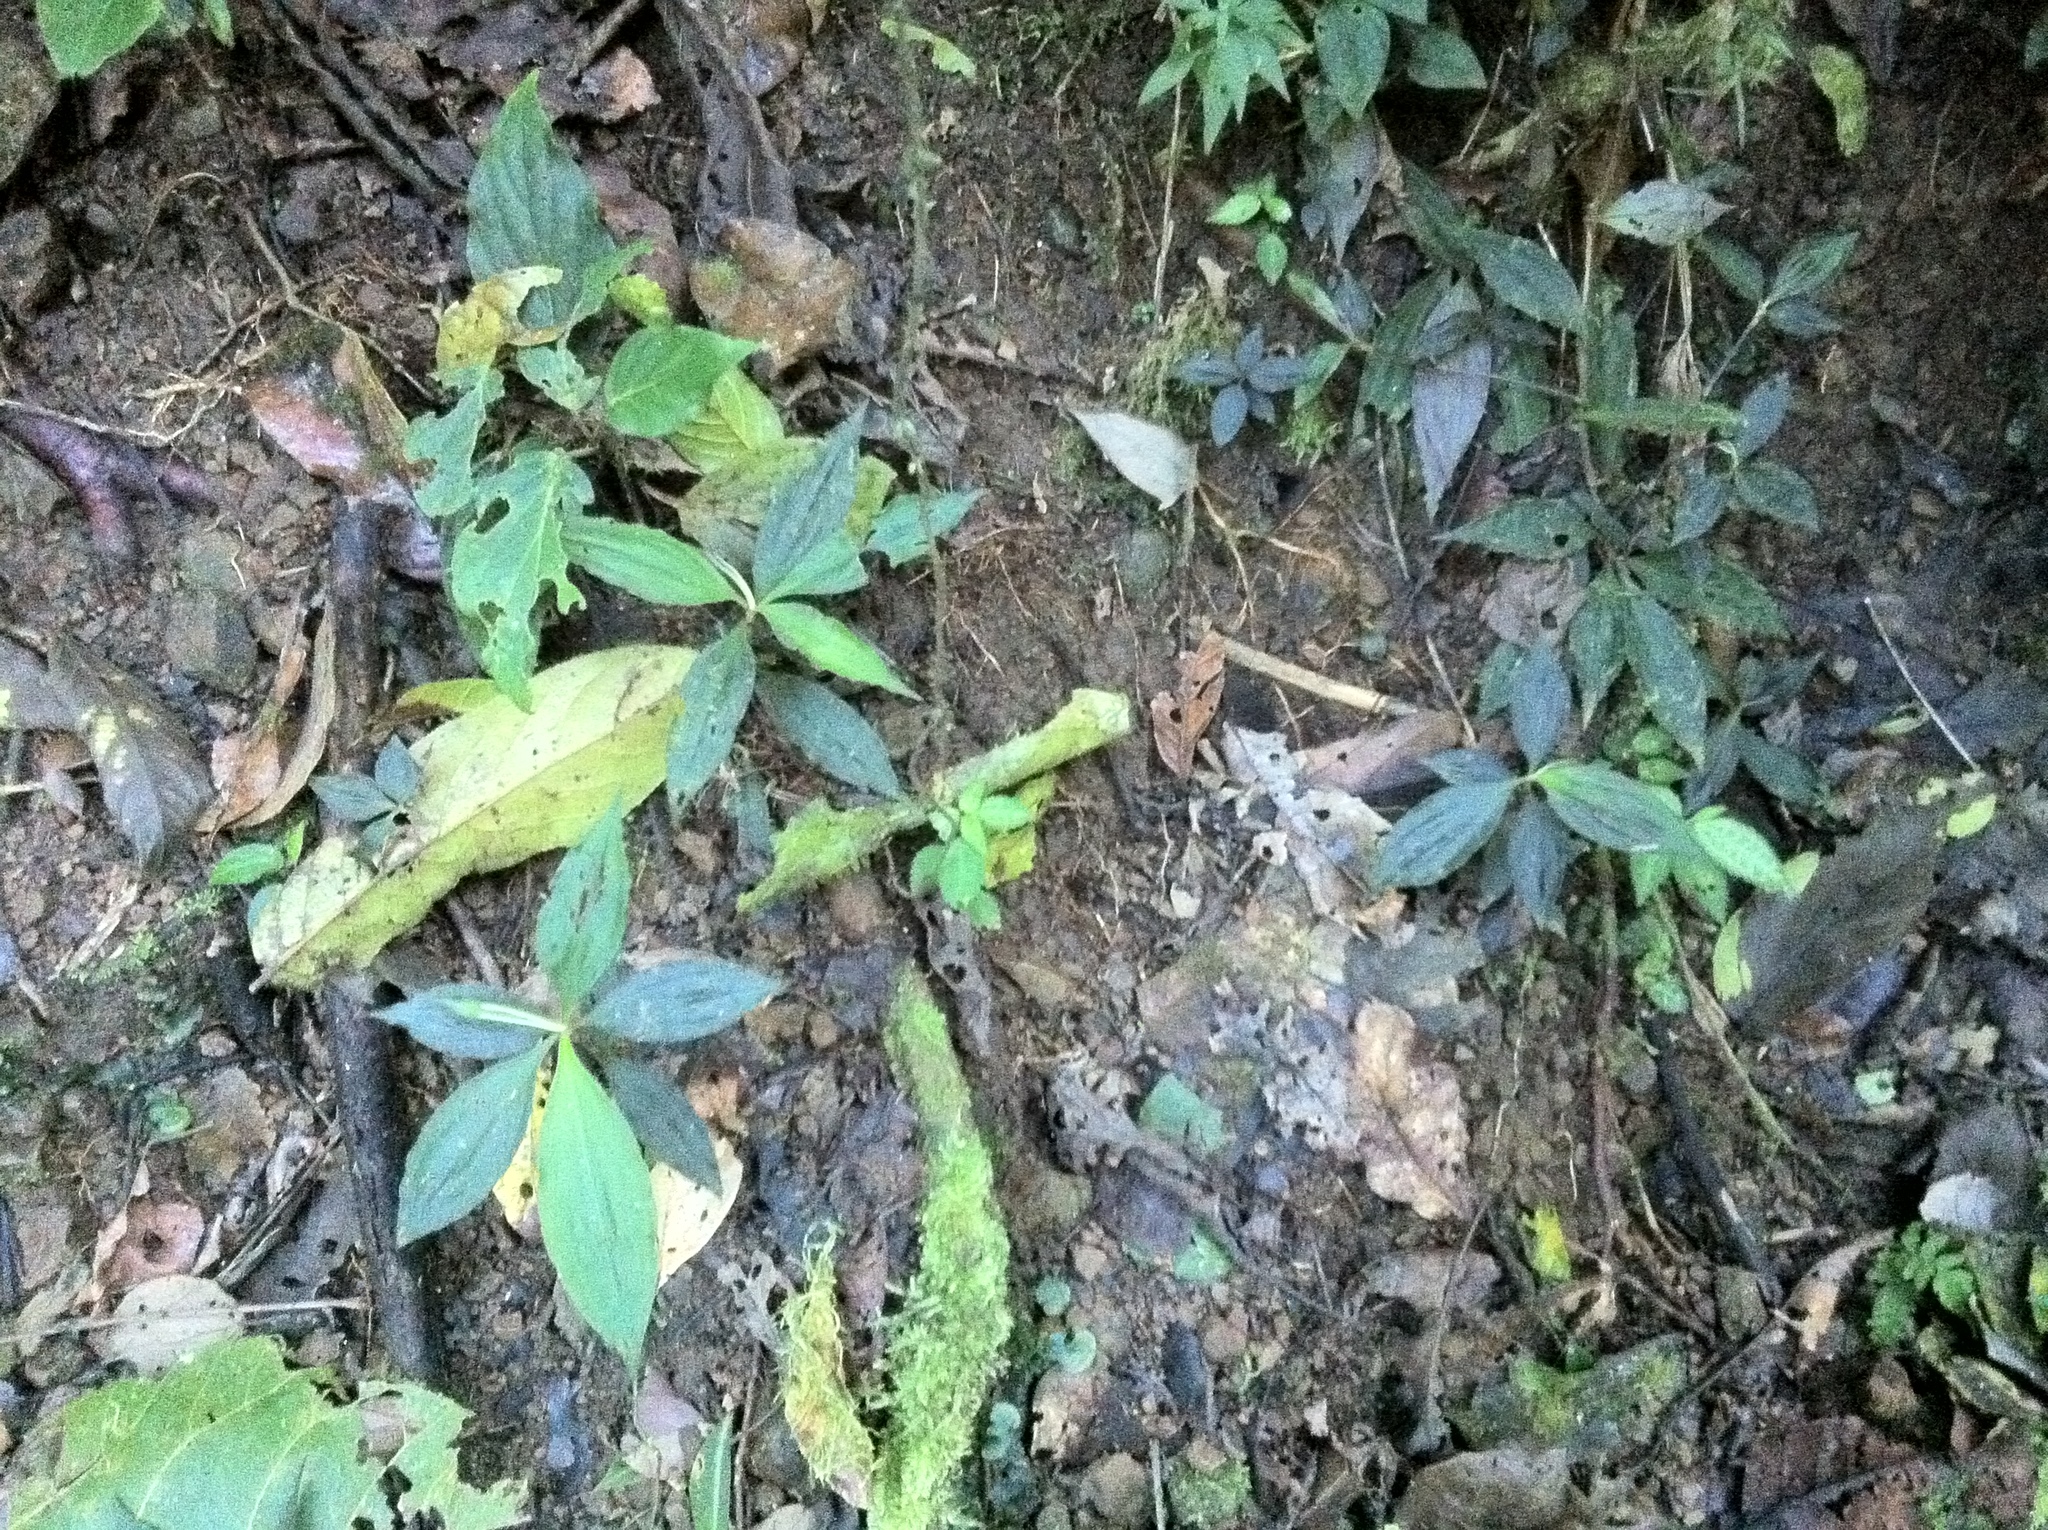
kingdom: Plantae
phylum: Tracheophyta
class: Liliopsida
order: Commelinales
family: Commelinaceae
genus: Tradescantia
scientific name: Tradescantia grantii
